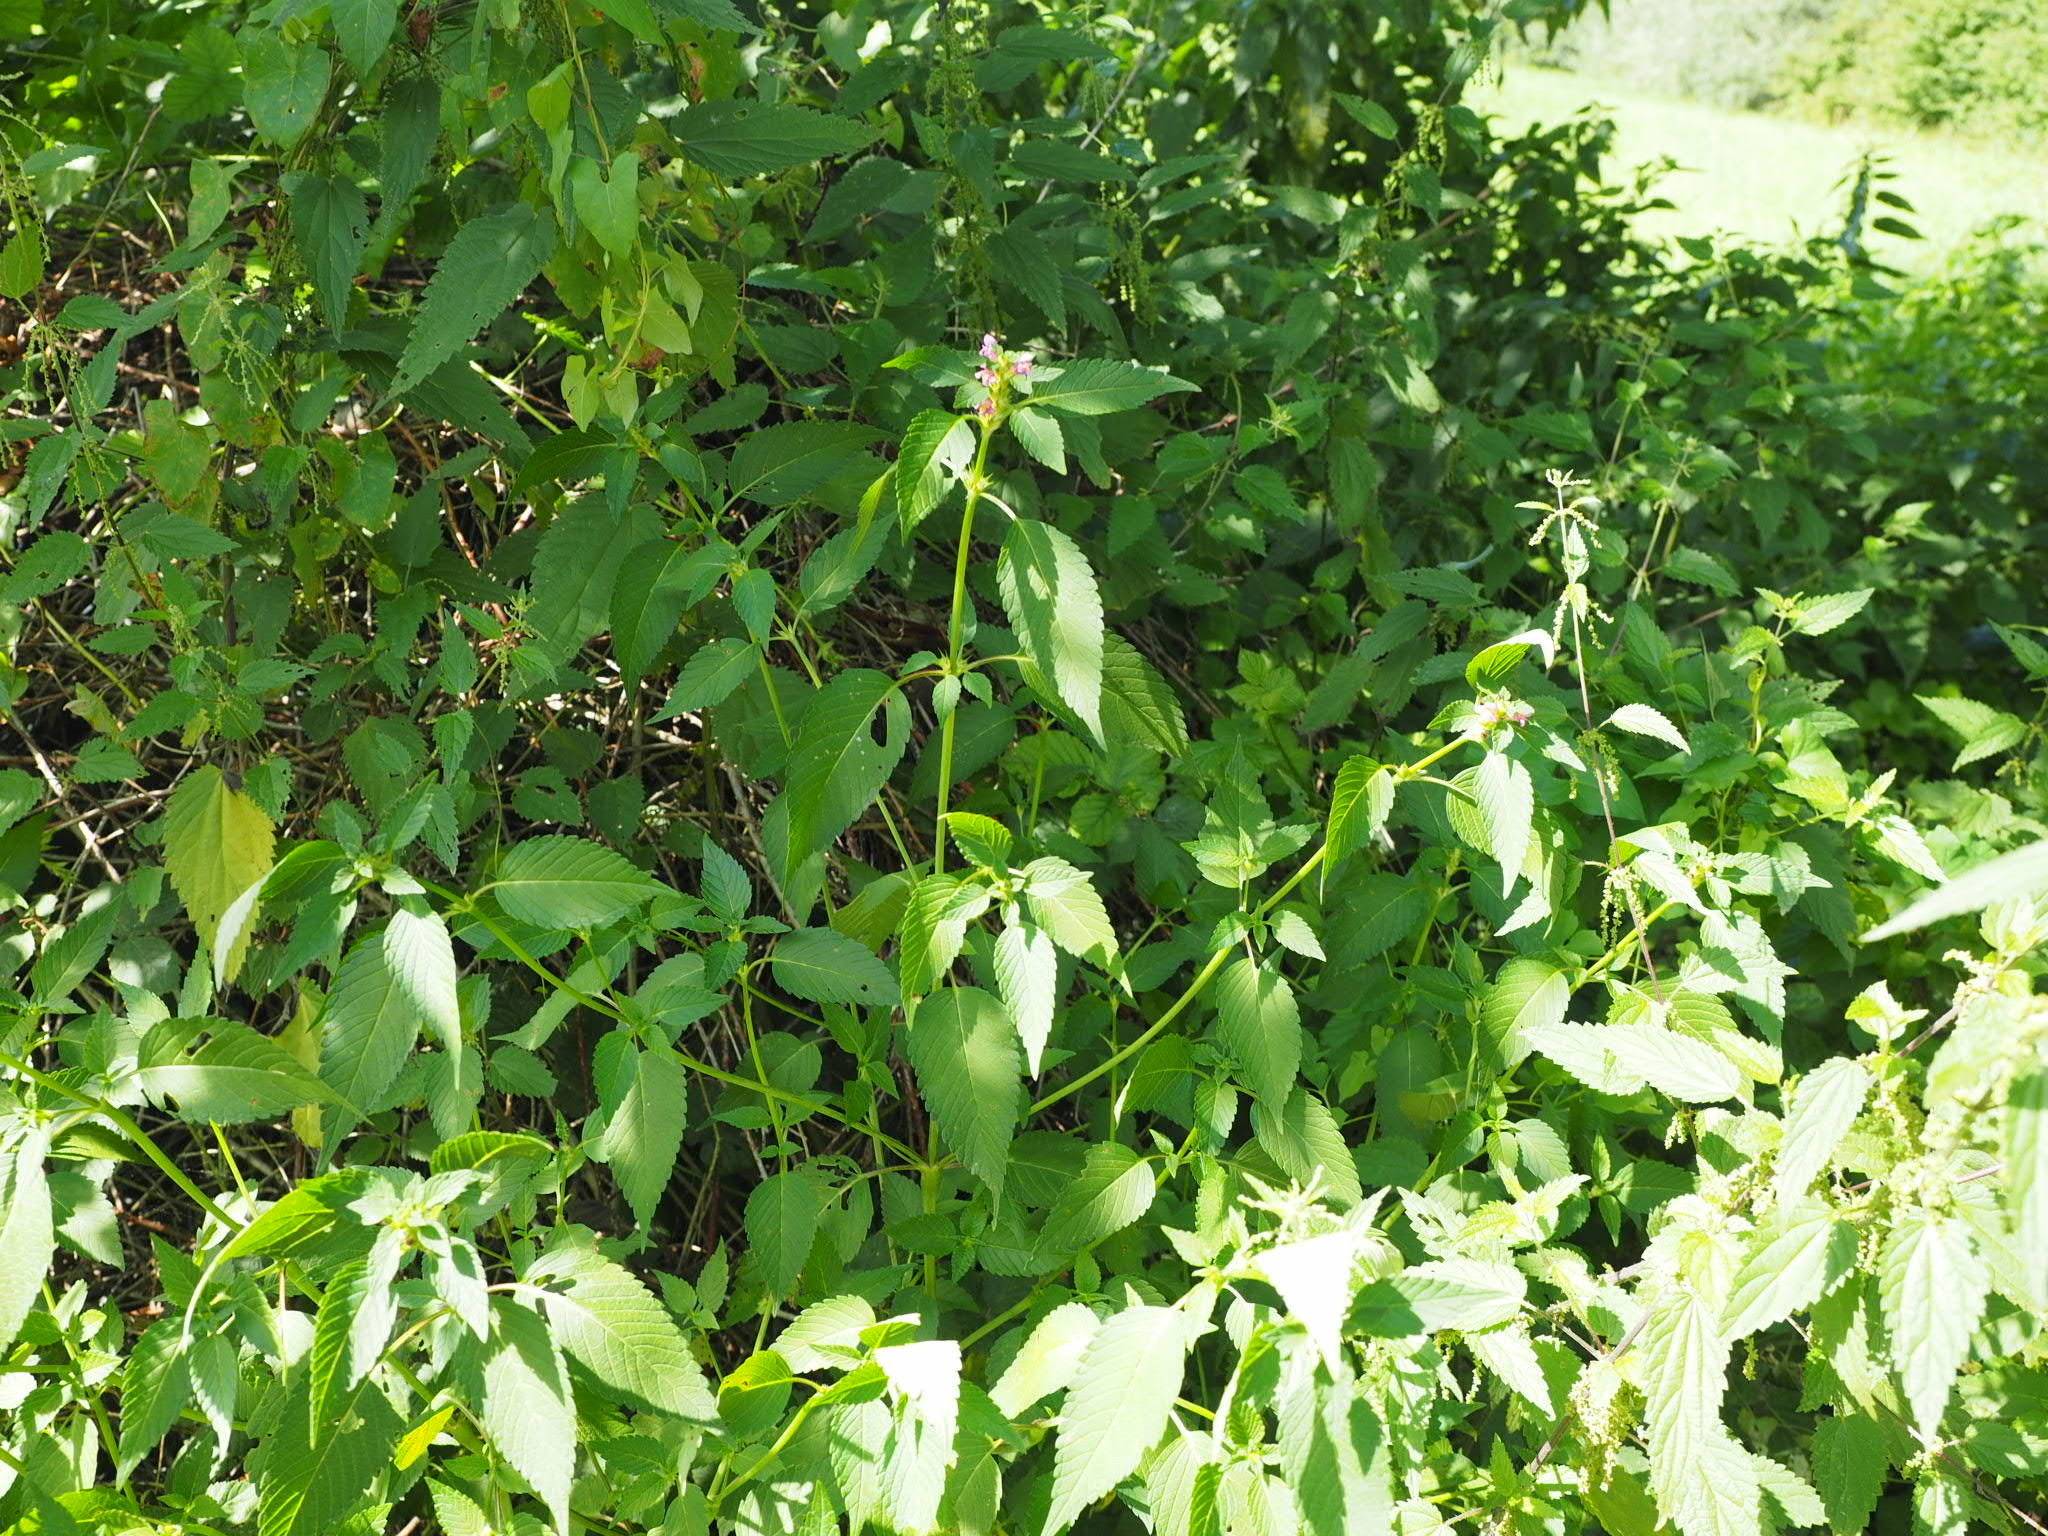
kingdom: Plantae
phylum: Tracheophyta
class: Magnoliopsida
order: Lamiales
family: Lamiaceae
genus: Galeopsis
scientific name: Galeopsis tetrahit
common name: Common hemp-nettle
